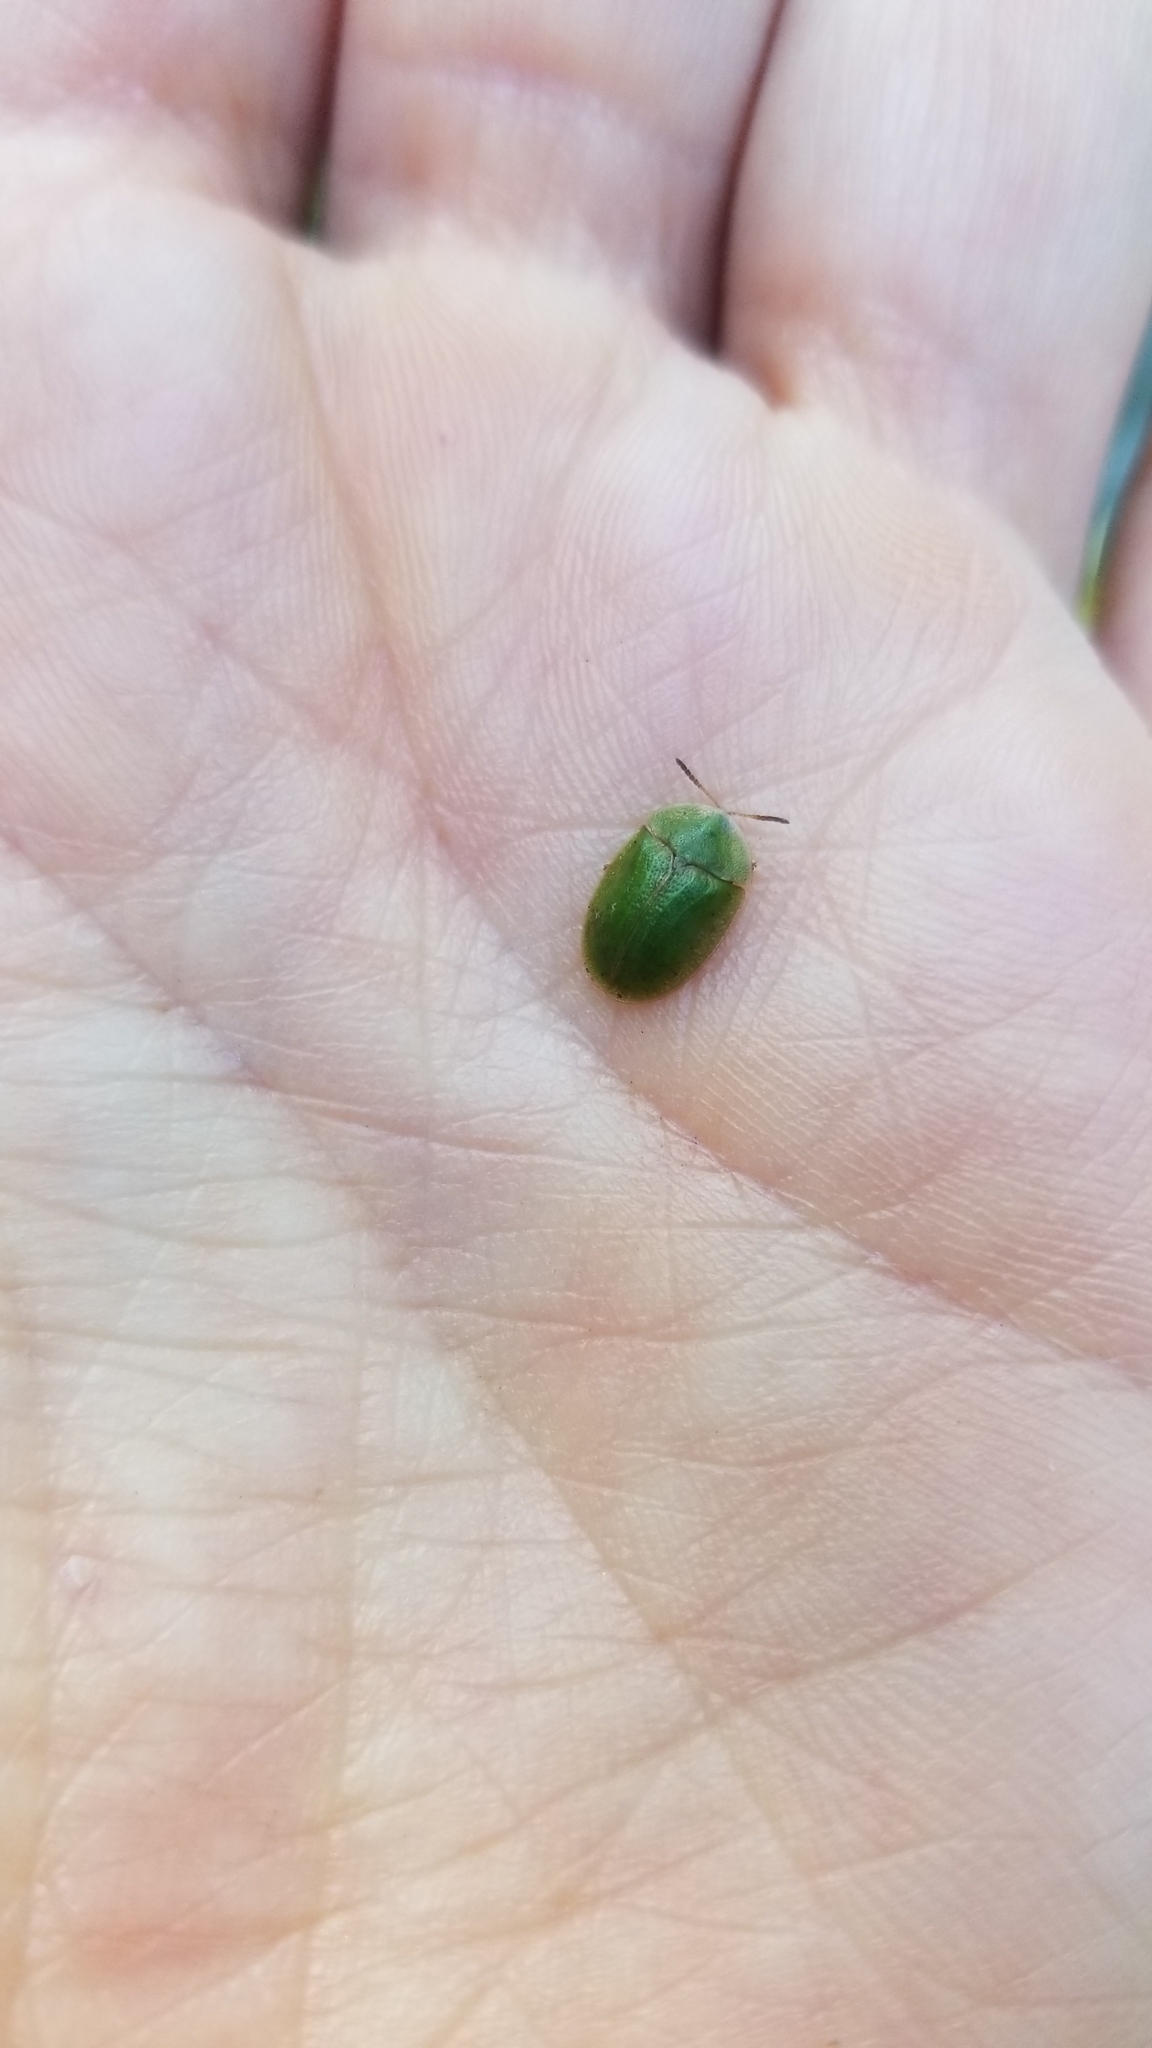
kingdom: Animalia
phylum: Arthropoda
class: Insecta
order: Coleoptera
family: Chrysomelidae
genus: Cassida
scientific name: Cassida rubiginosa
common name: Thistle tortoise beetle
